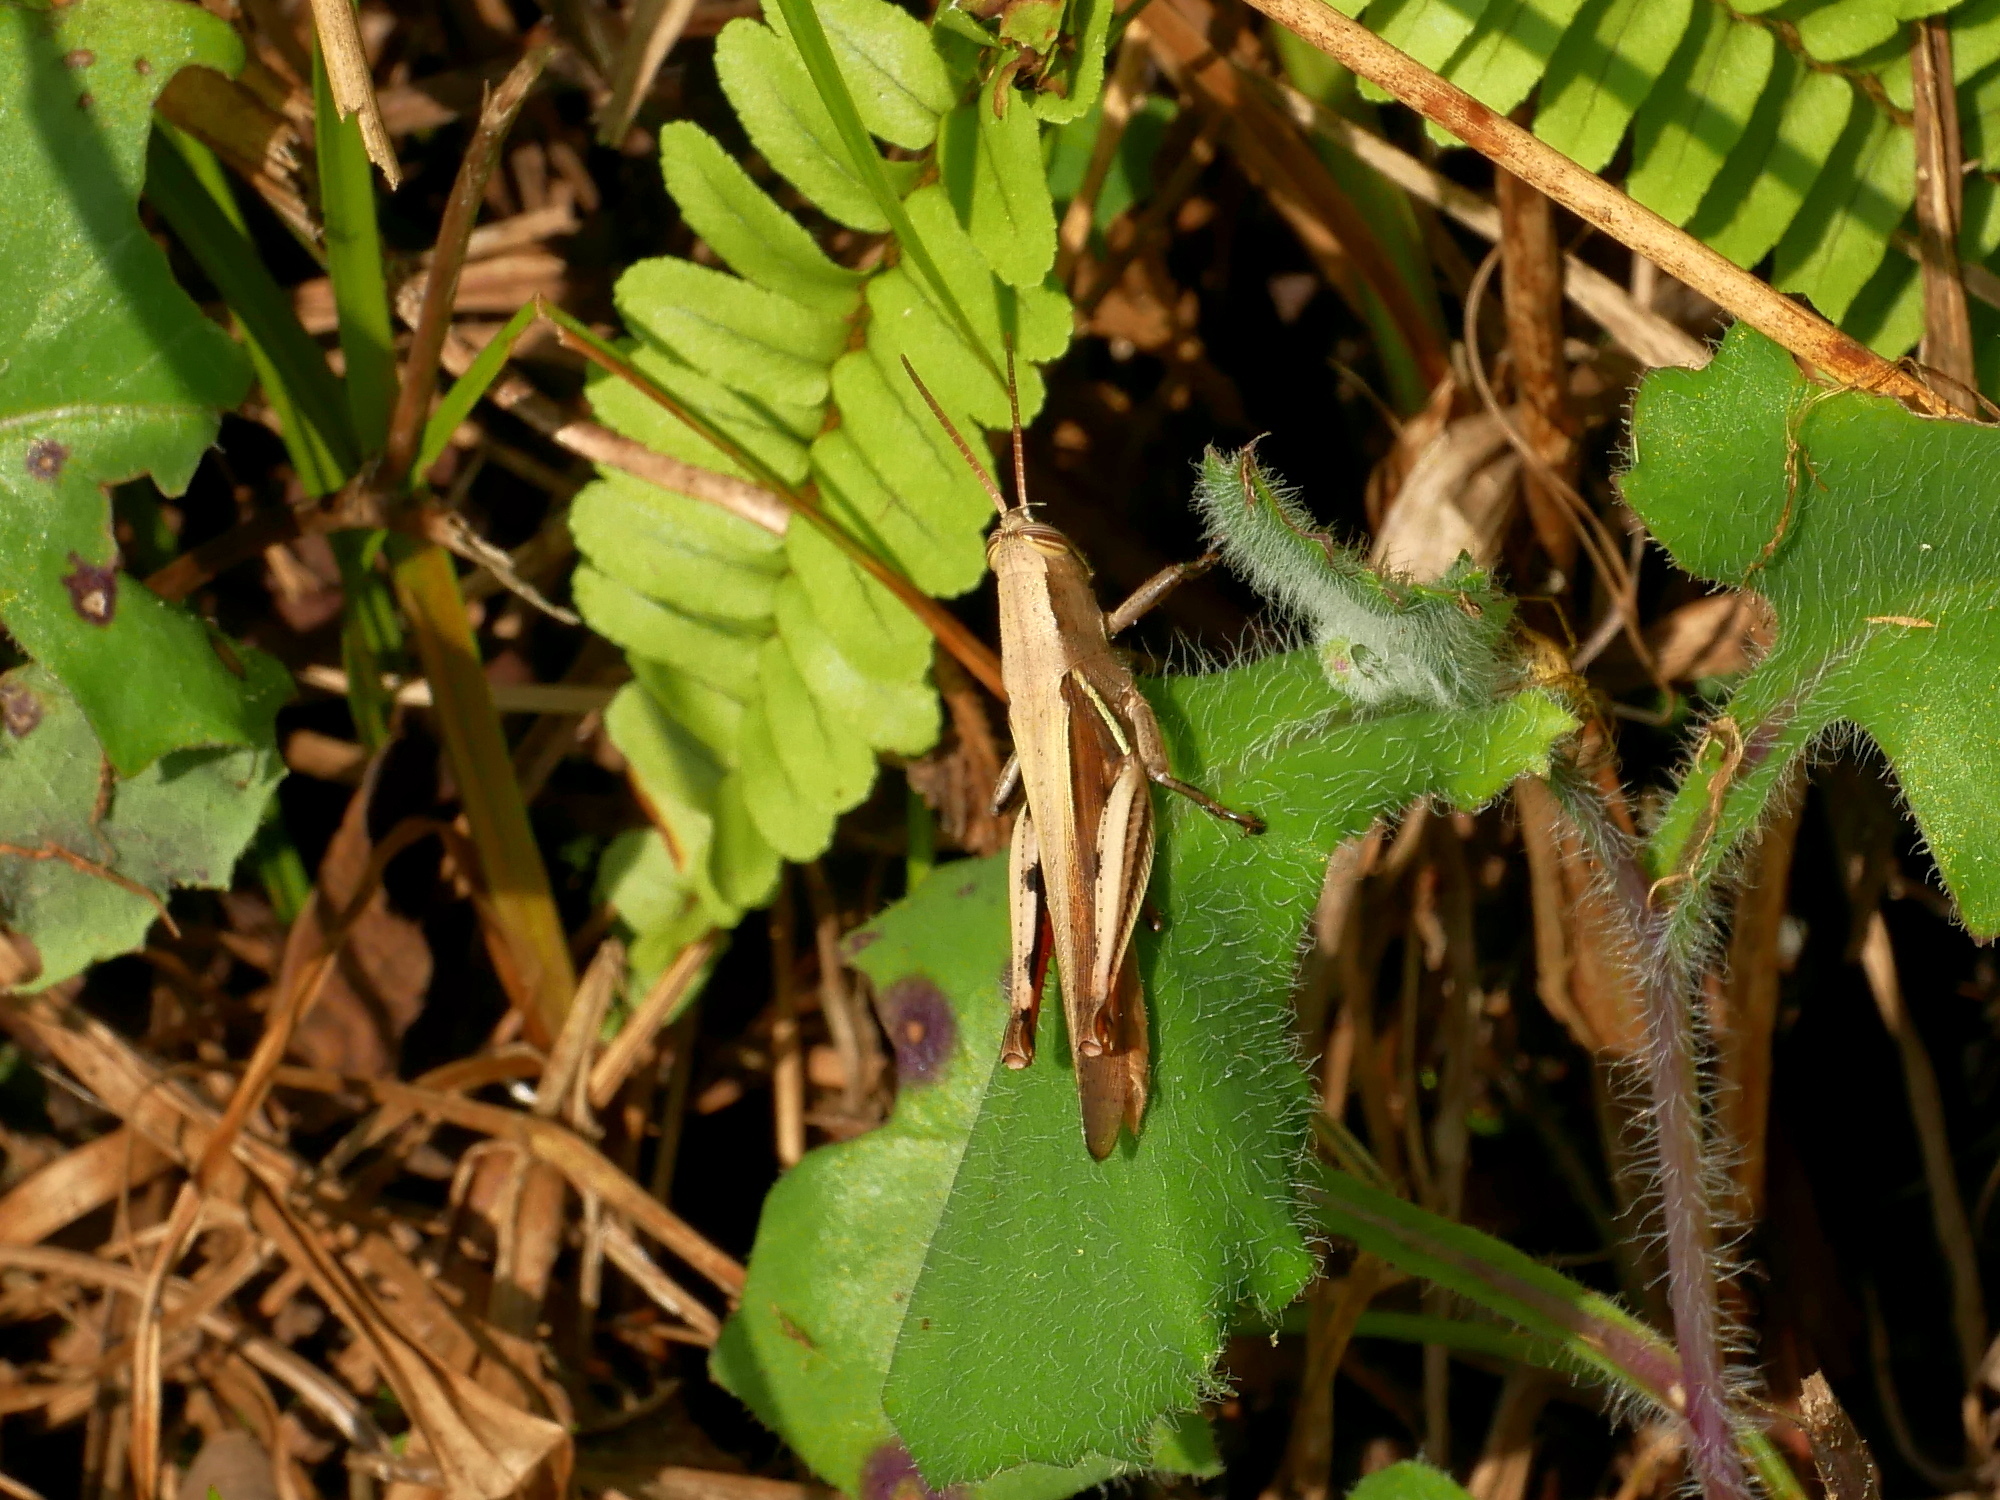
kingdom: Animalia
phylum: Arthropoda
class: Insecta
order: Orthoptera
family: Acrididae
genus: Stenocatantops
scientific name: Stenocatantops splendens
